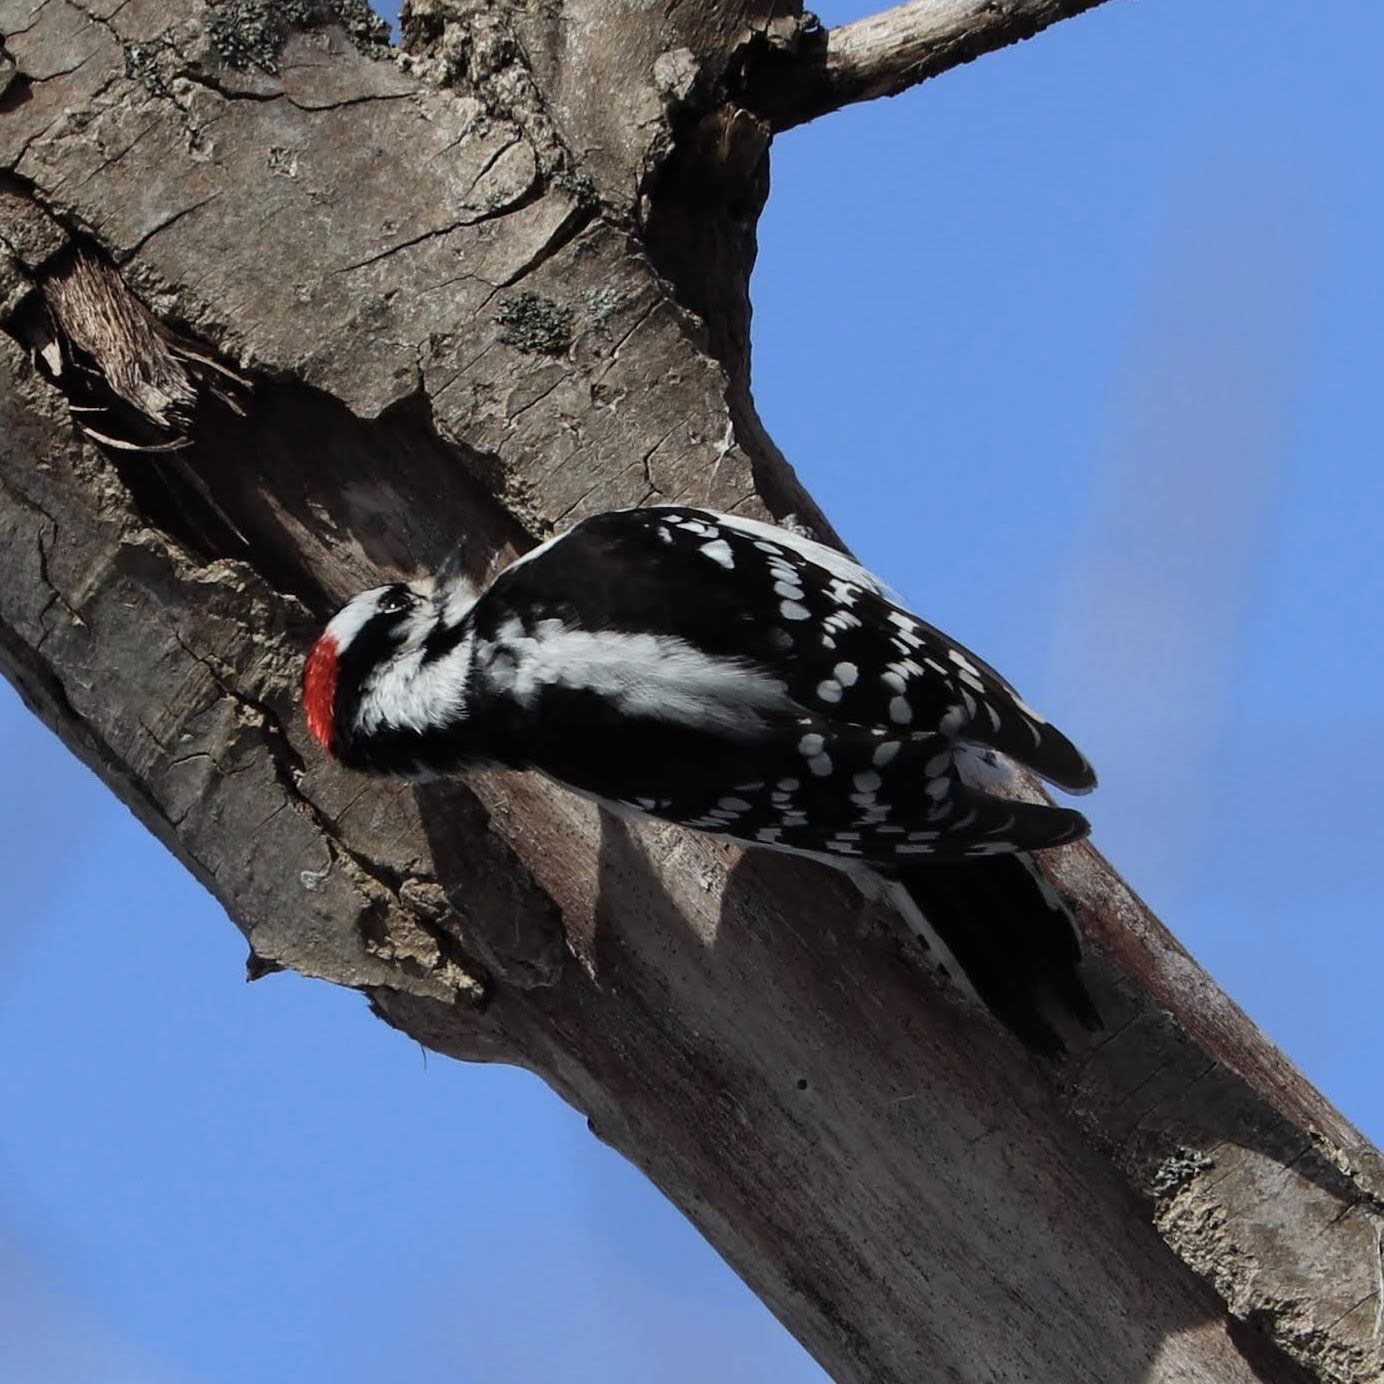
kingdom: Animalia
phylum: Chordata
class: Aves
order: Piciformes
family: Picidae
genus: Dryobates
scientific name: Dryobates pubescens
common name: Downy woodpecker
